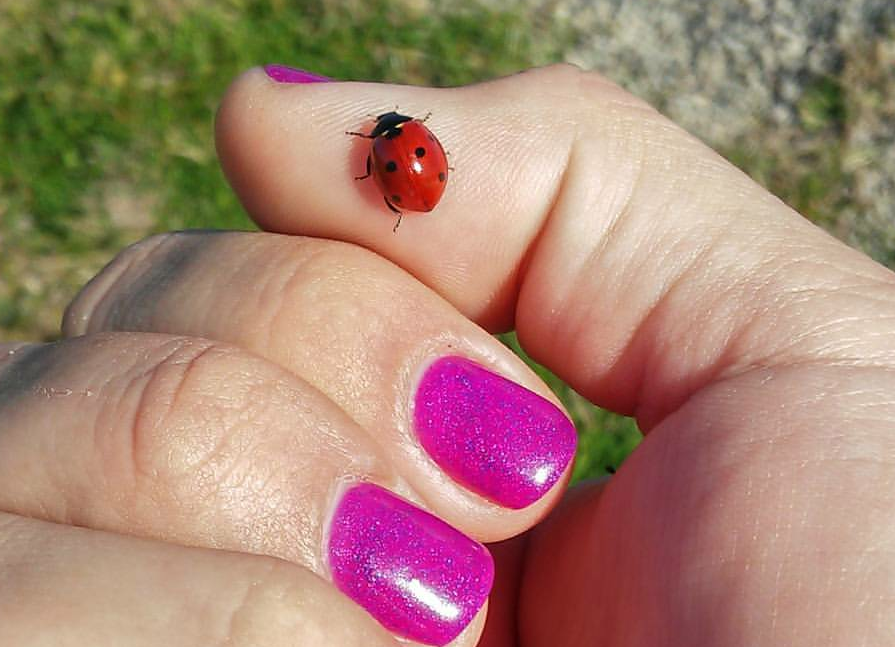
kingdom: Animalia
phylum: Arthropoda
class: Insecta
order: Coleoptera
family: Coccinellidae
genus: Coccinella
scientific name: Coccinella septempunctata
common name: Sevenspotted lady beetle
